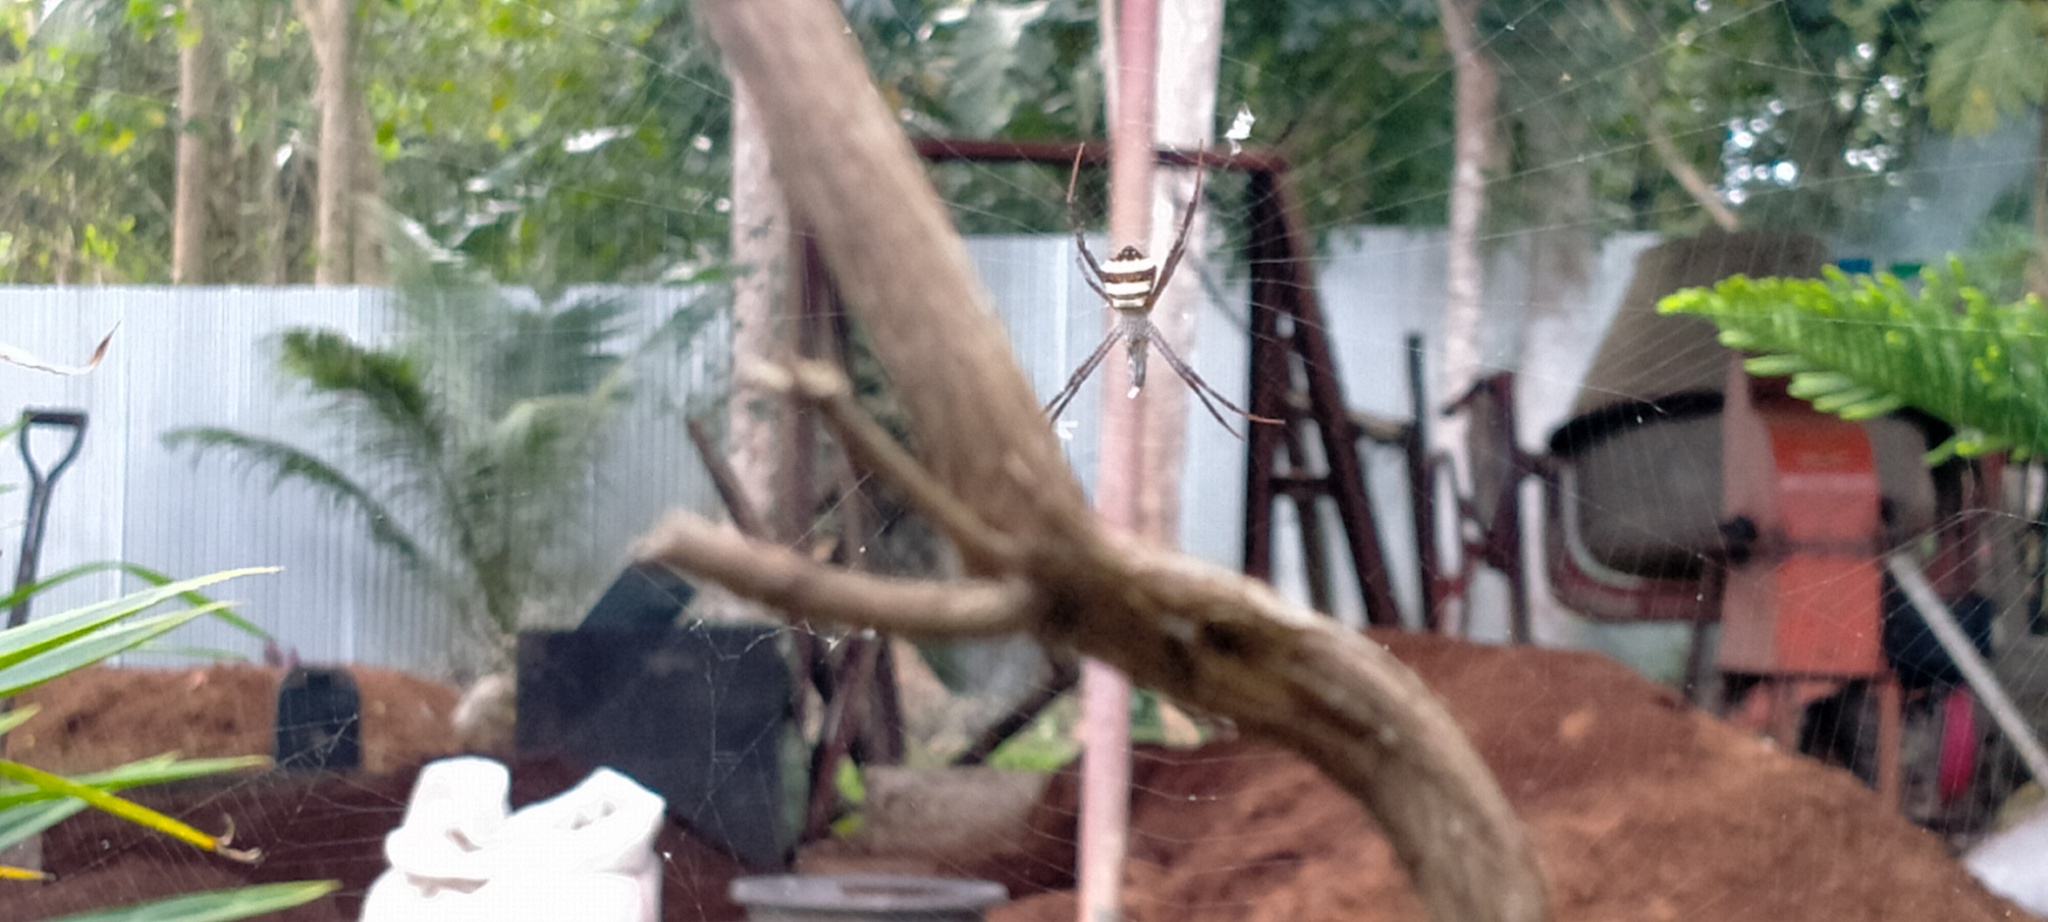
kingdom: Animalia
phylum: Arthropoda
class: Arachnida
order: Araneae
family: Araneidae
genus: Argiope
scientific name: Argiope luzona
